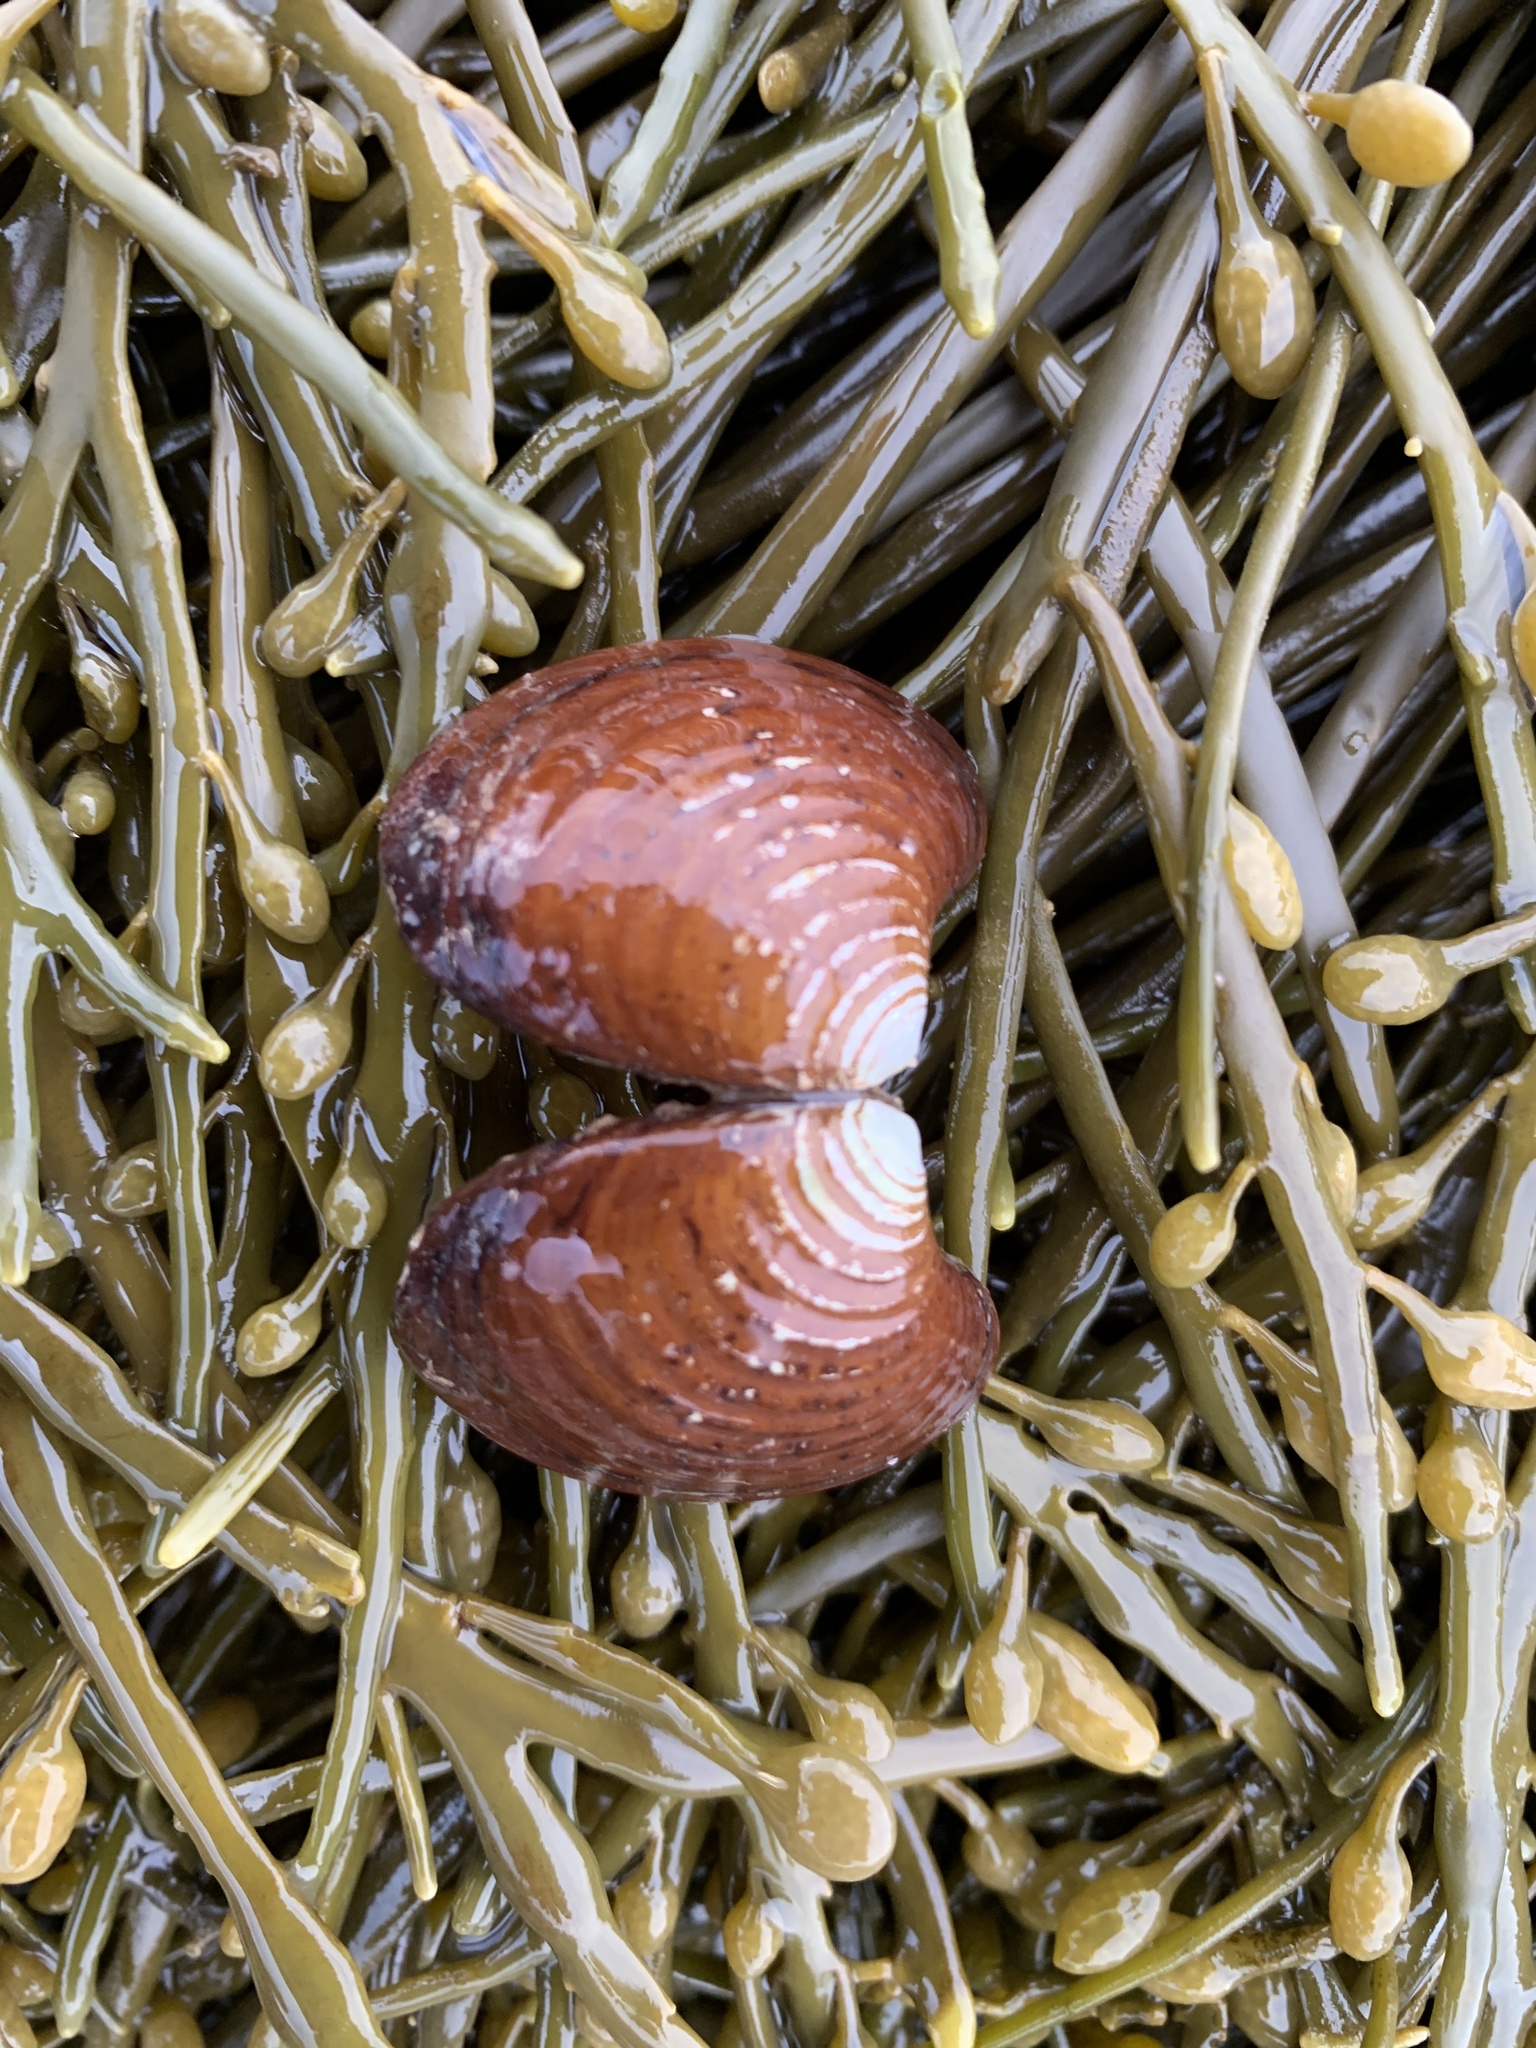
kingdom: Animalia
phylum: Mollusca
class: Bivalvia
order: Carditida
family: Astartidae
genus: Astarte
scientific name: Astarte undata
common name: Wavy astarte
